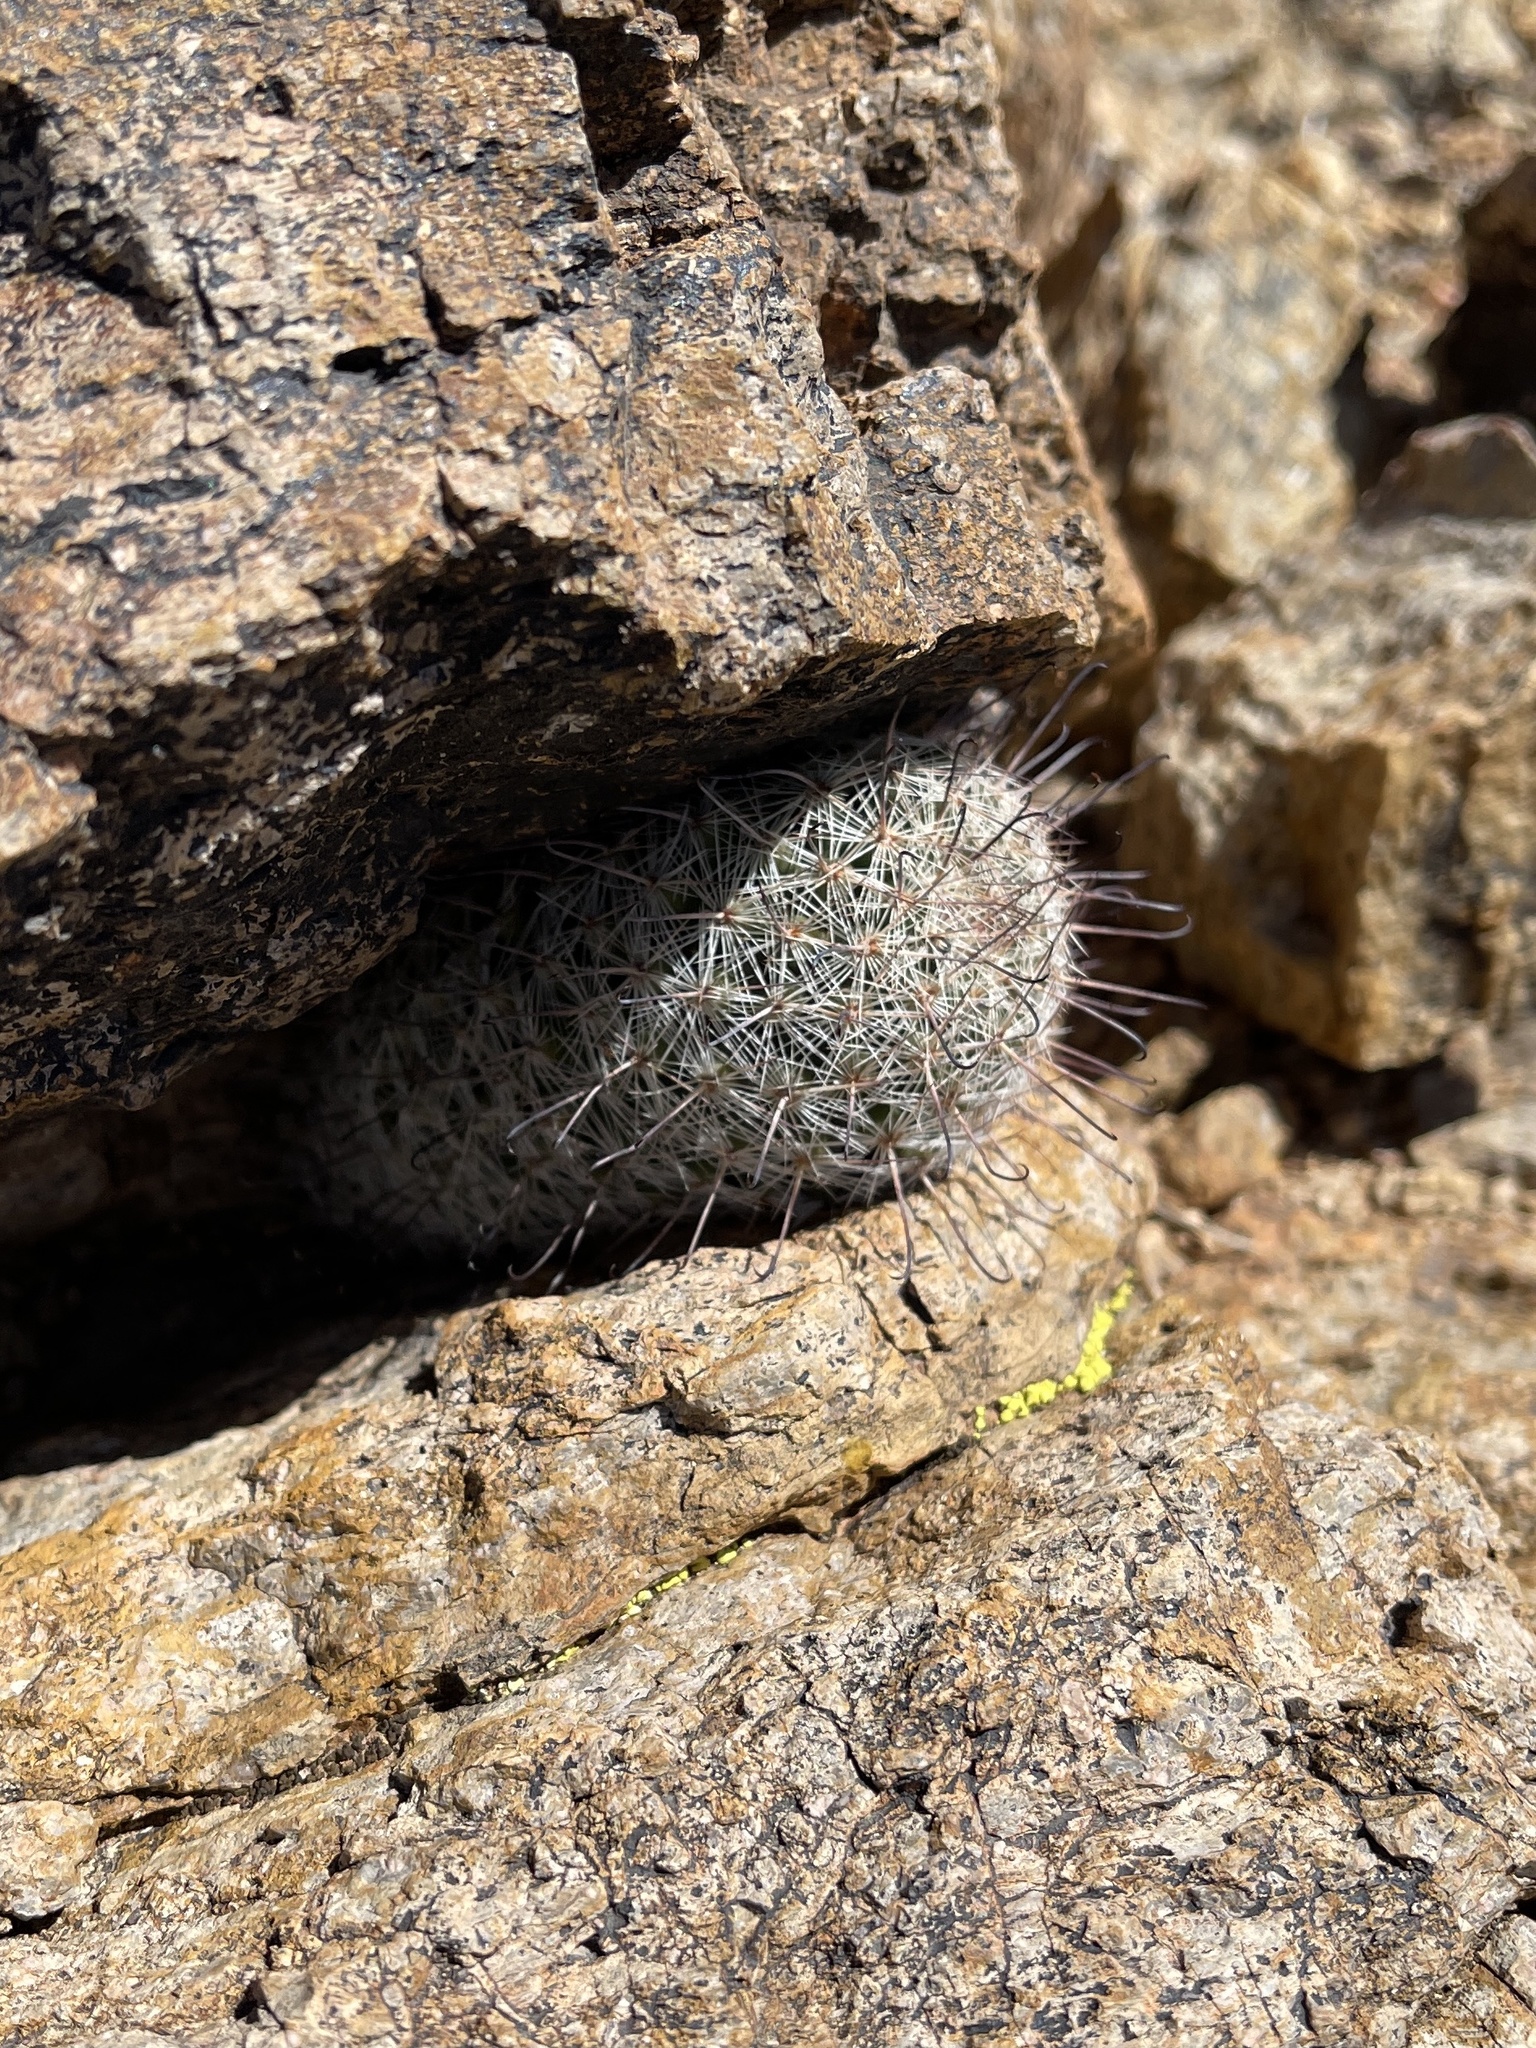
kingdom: Plantae
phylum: Tracheophyta
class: Magnoliopsida
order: Caryophyllales
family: Cactaceae
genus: Cochemiea
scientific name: Cochemiea grahamii
